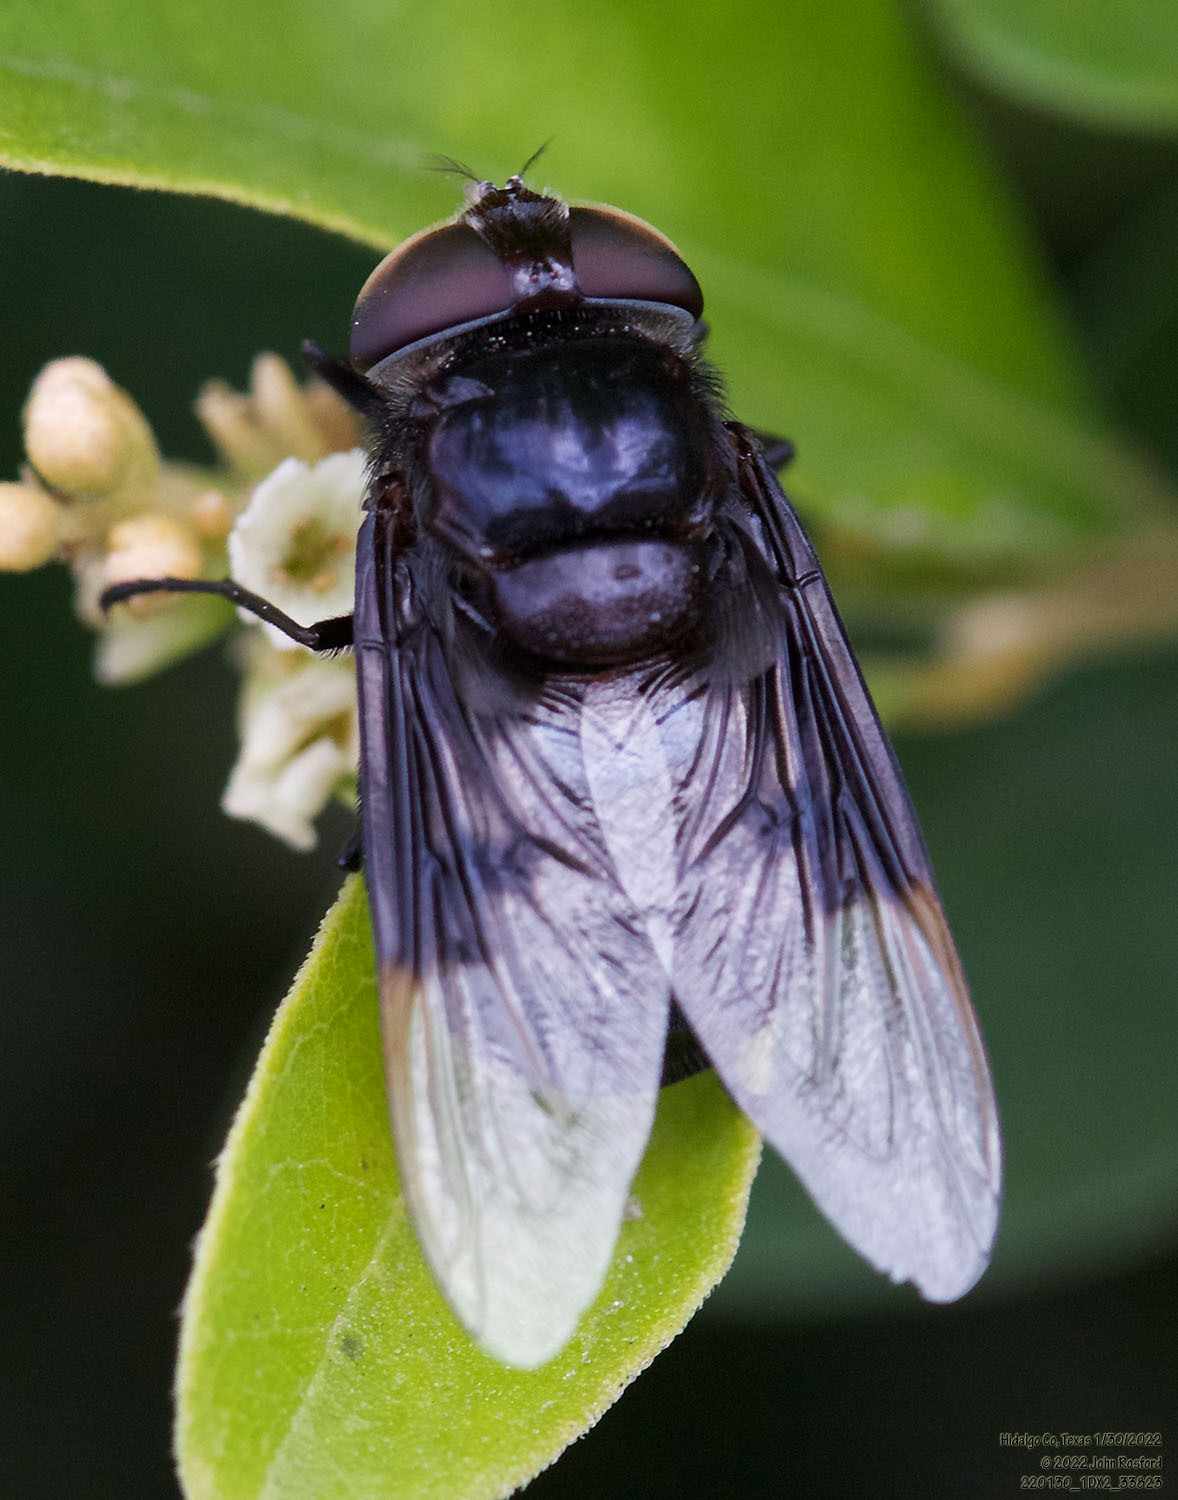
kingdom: Animalia
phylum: Arthropoda
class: Insecta
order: Diptera
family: Syrphidae
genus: Copestylum
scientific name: Copestylum
